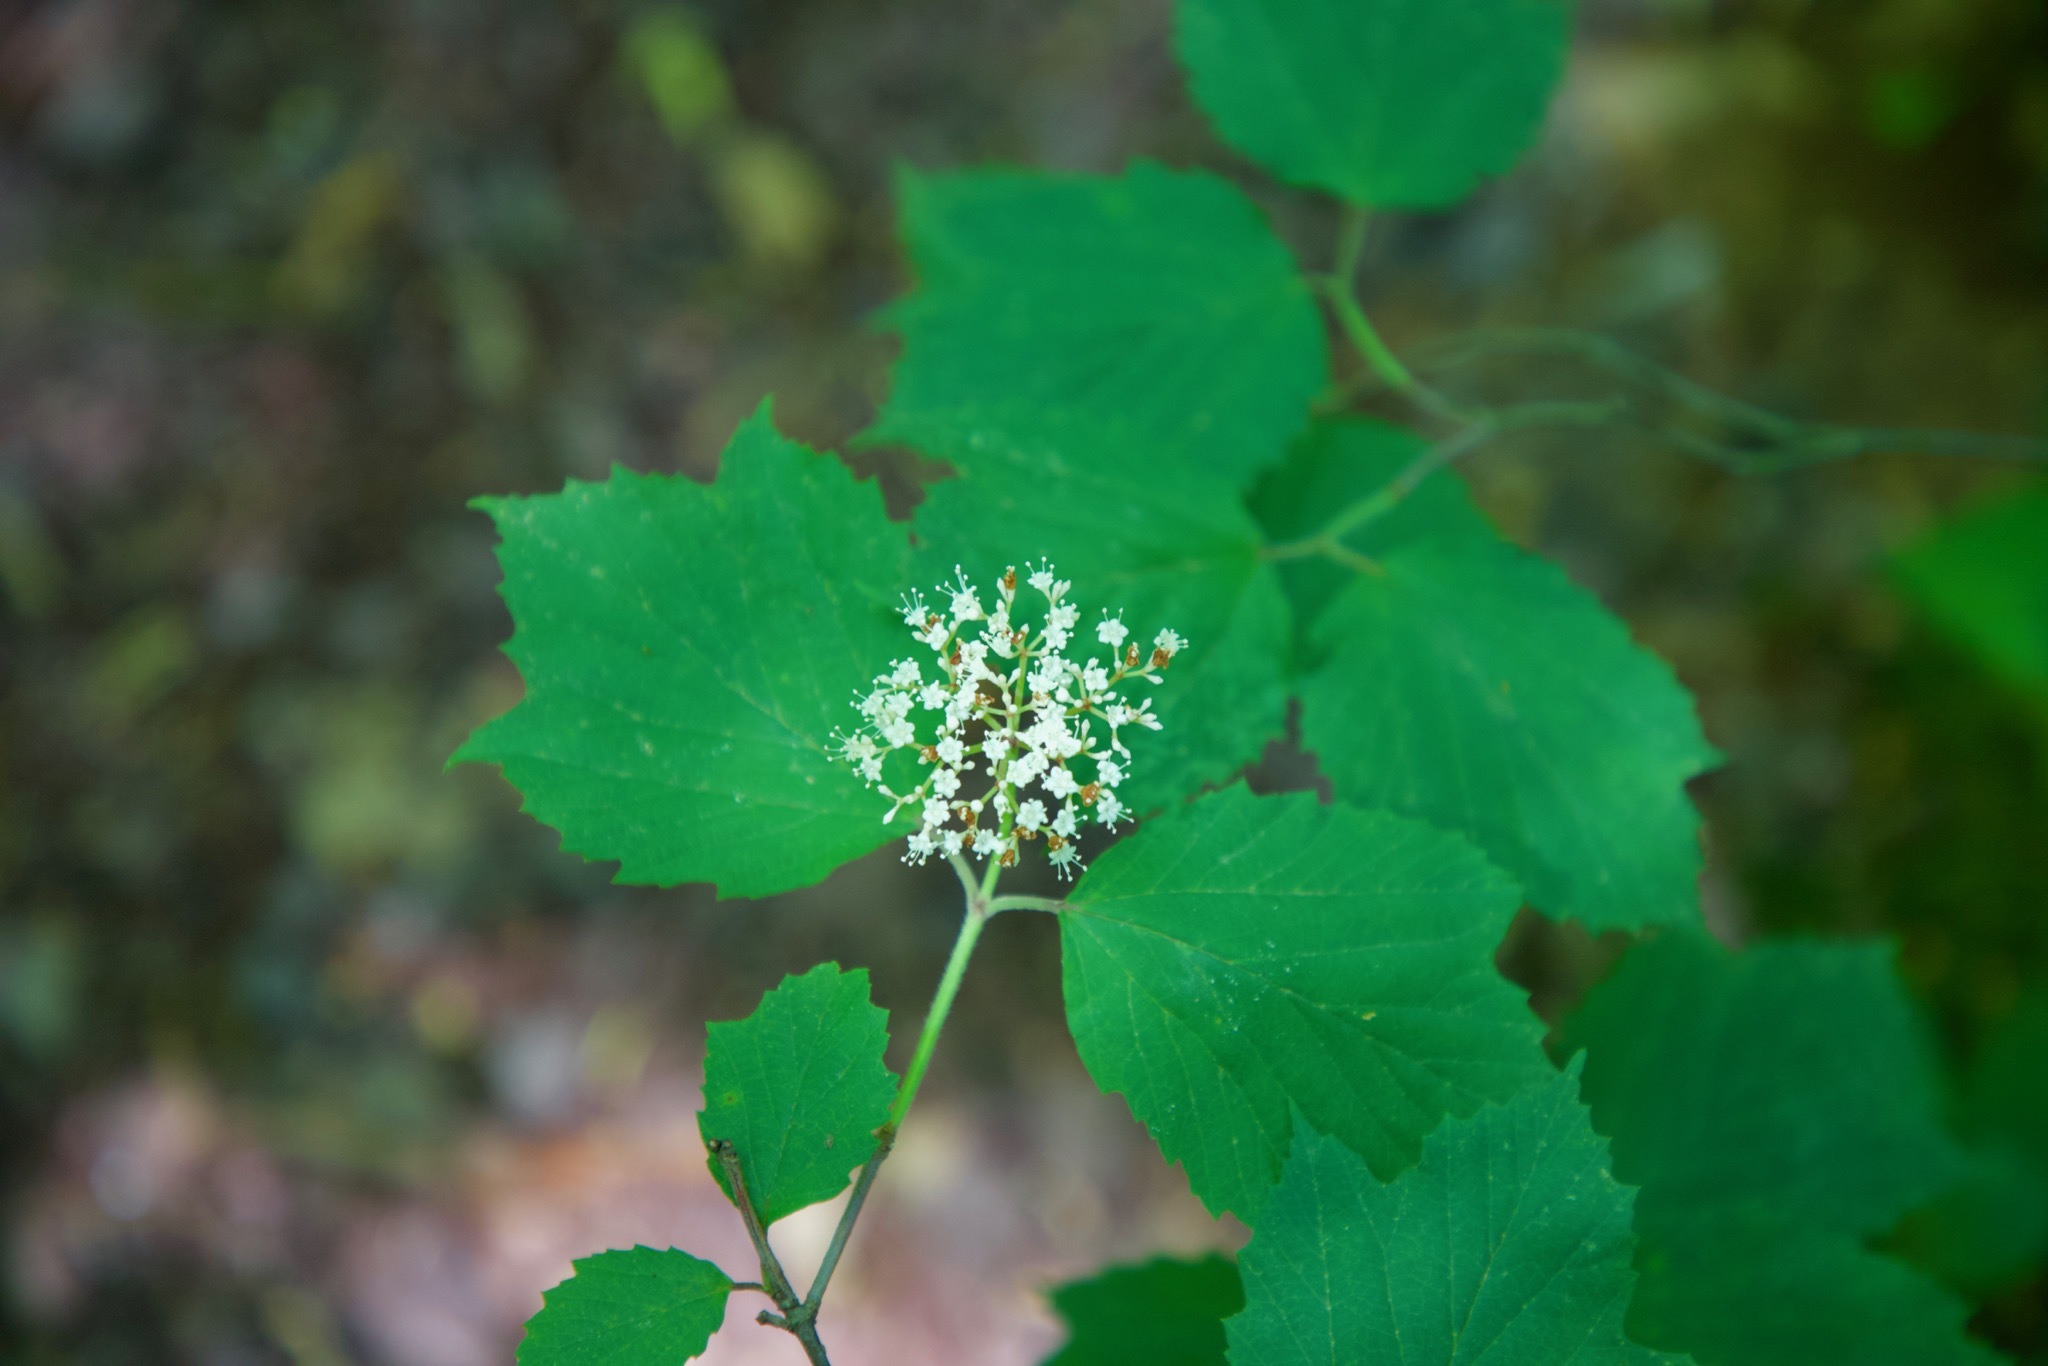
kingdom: Plantae
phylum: Tracheophyta
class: Magnoliopsida
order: Dipsacales
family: Viburnaceae
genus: Viburnum
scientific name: Viburnum acerifolium
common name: Dockmackie
